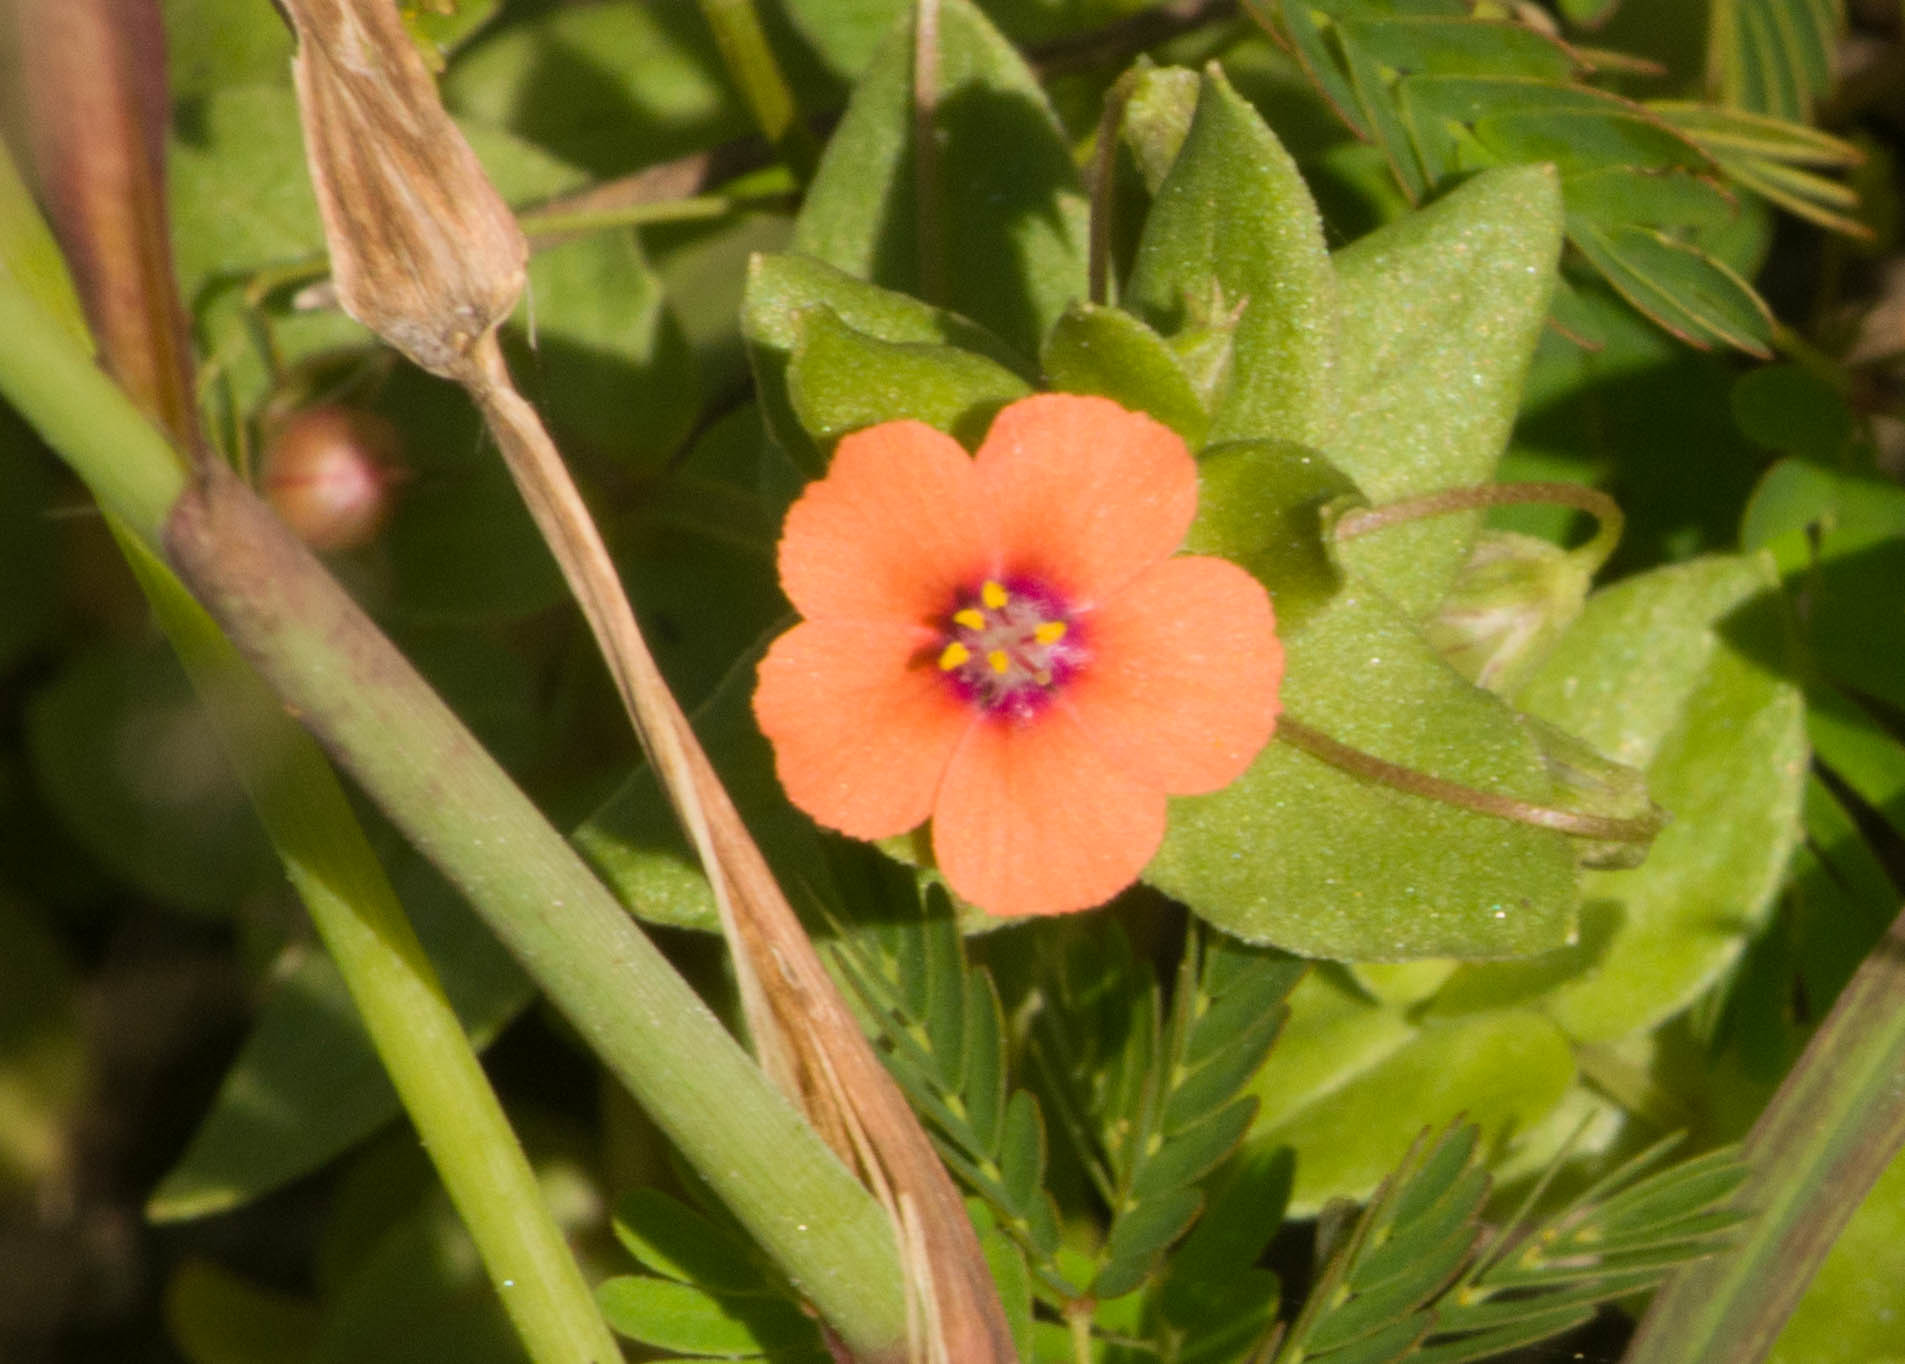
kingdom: Plantae
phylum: Tracheophyta
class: Magnoliopsida
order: Ericales
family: Primulaceae
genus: Lysimachia
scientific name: Lysimachia arvensis
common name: Scarlet pimpernel
